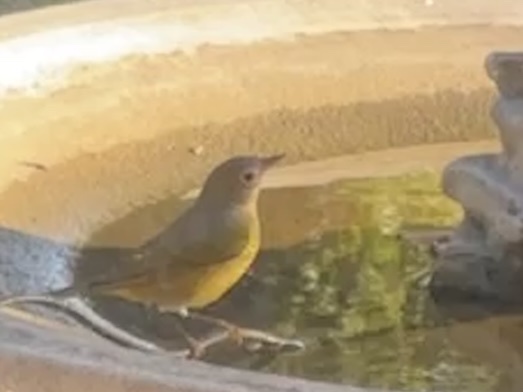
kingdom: Animalia
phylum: Chordata
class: Aves
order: Passeriformes
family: Parulidae
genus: Leiothlypis
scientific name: Leiothlypis ruficapilla
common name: Nashville warbler
